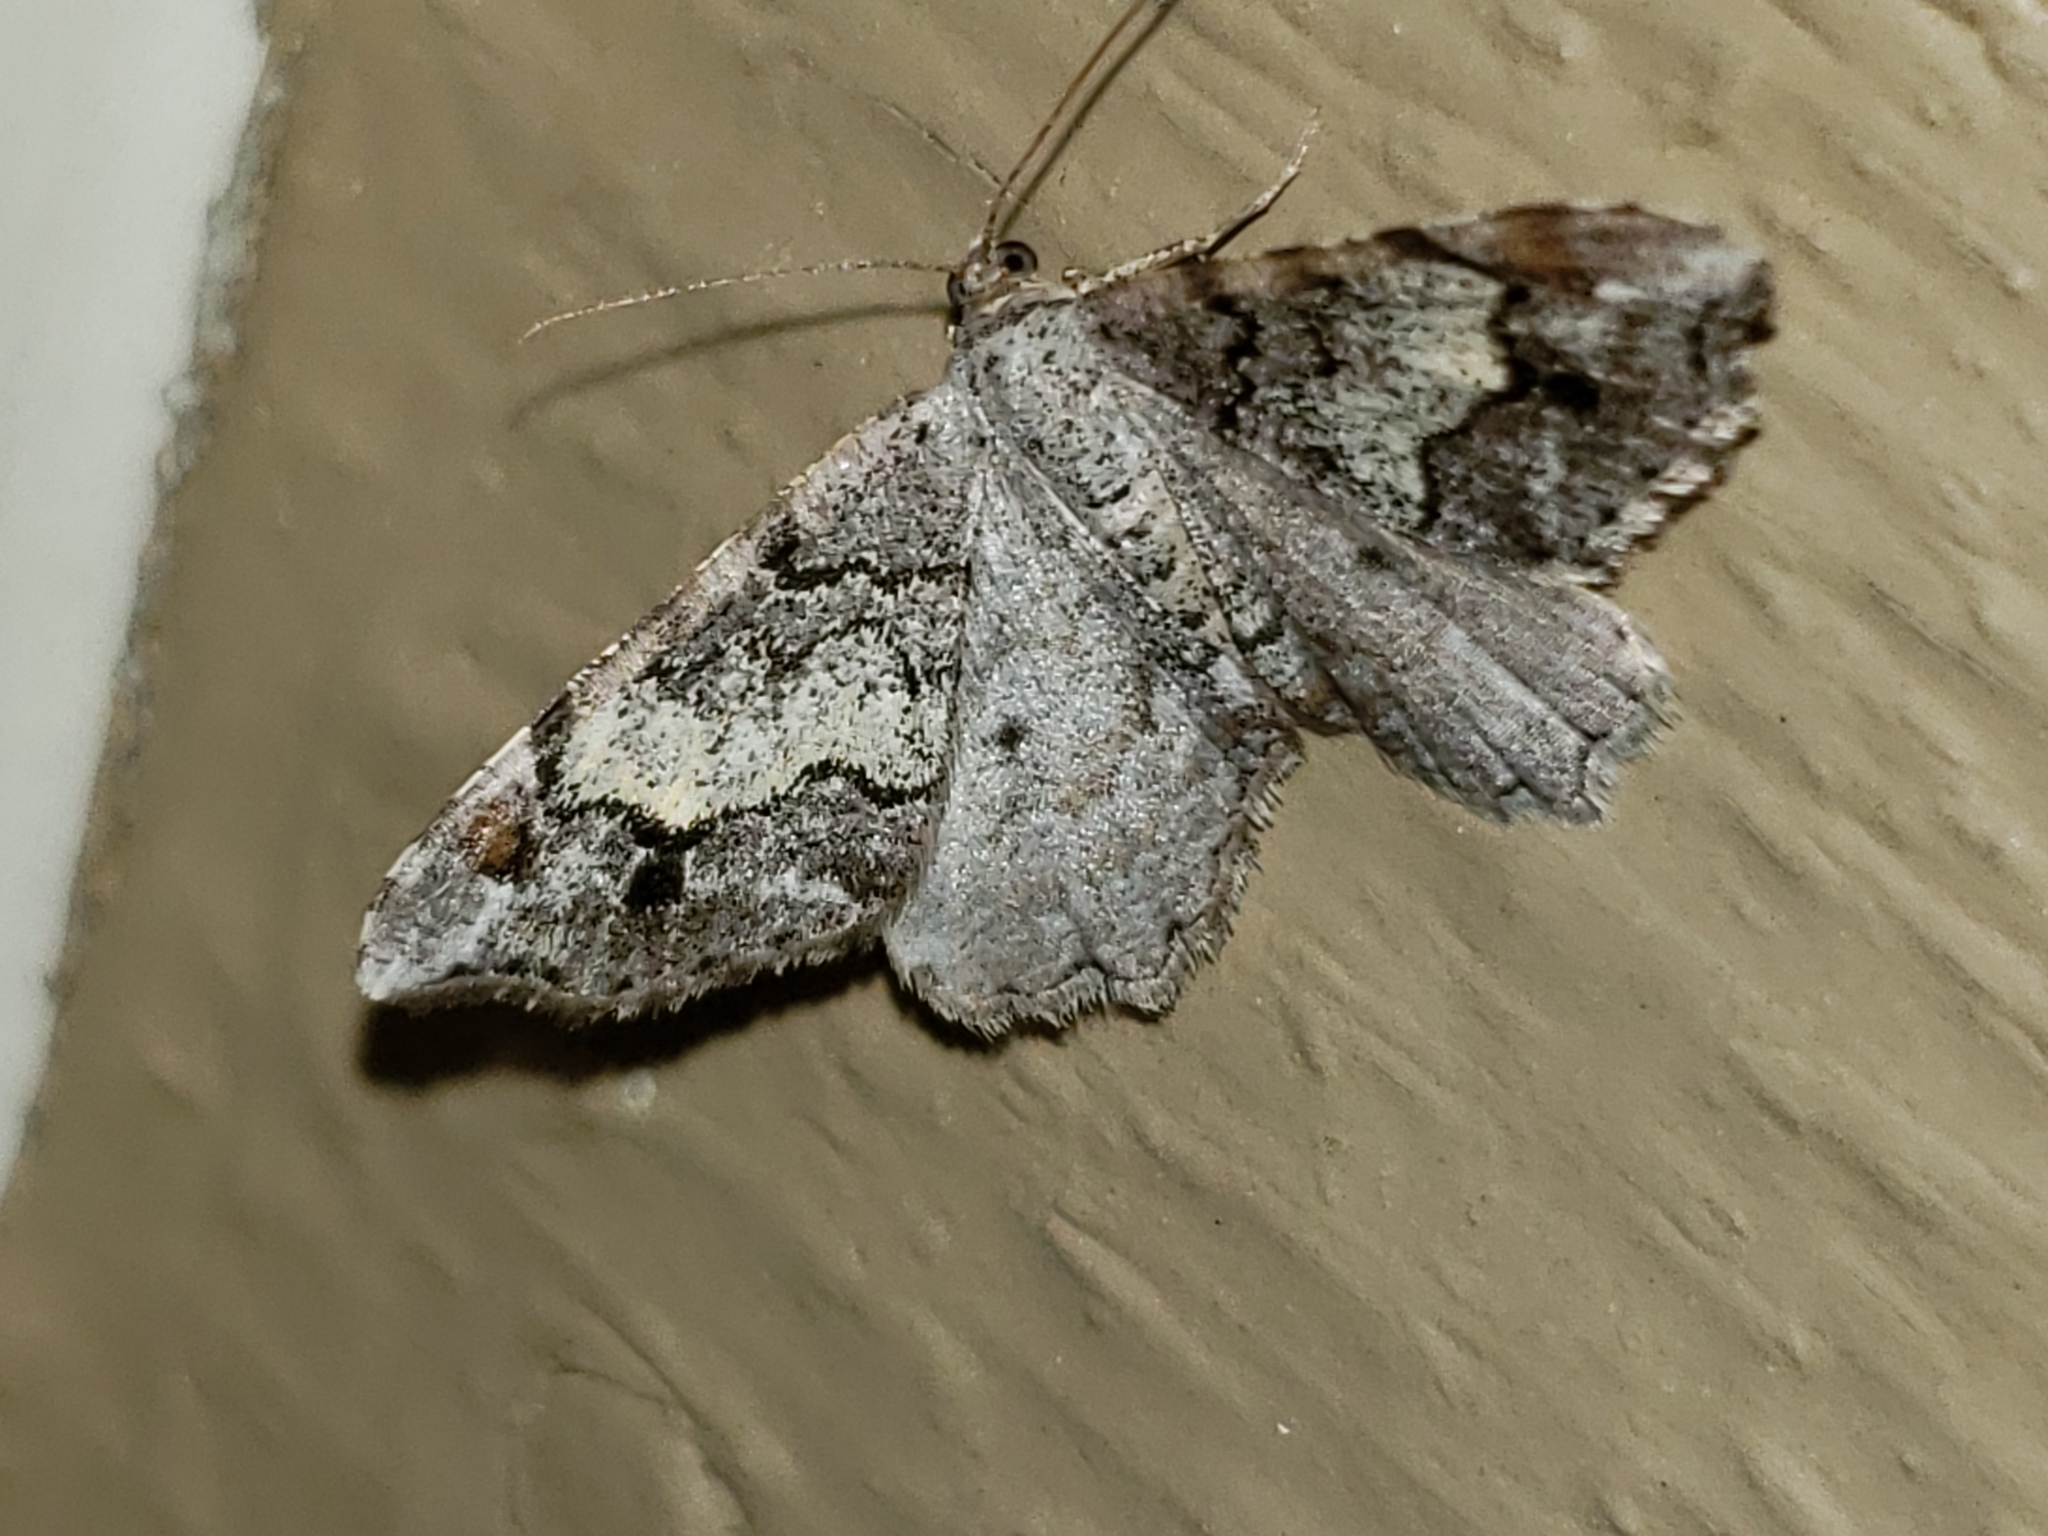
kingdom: Animalia
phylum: Arthropoda
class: Insecta
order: Lepidoptera
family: Geometridae
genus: Macaria
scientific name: Macaria granitata
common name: Granite moth
